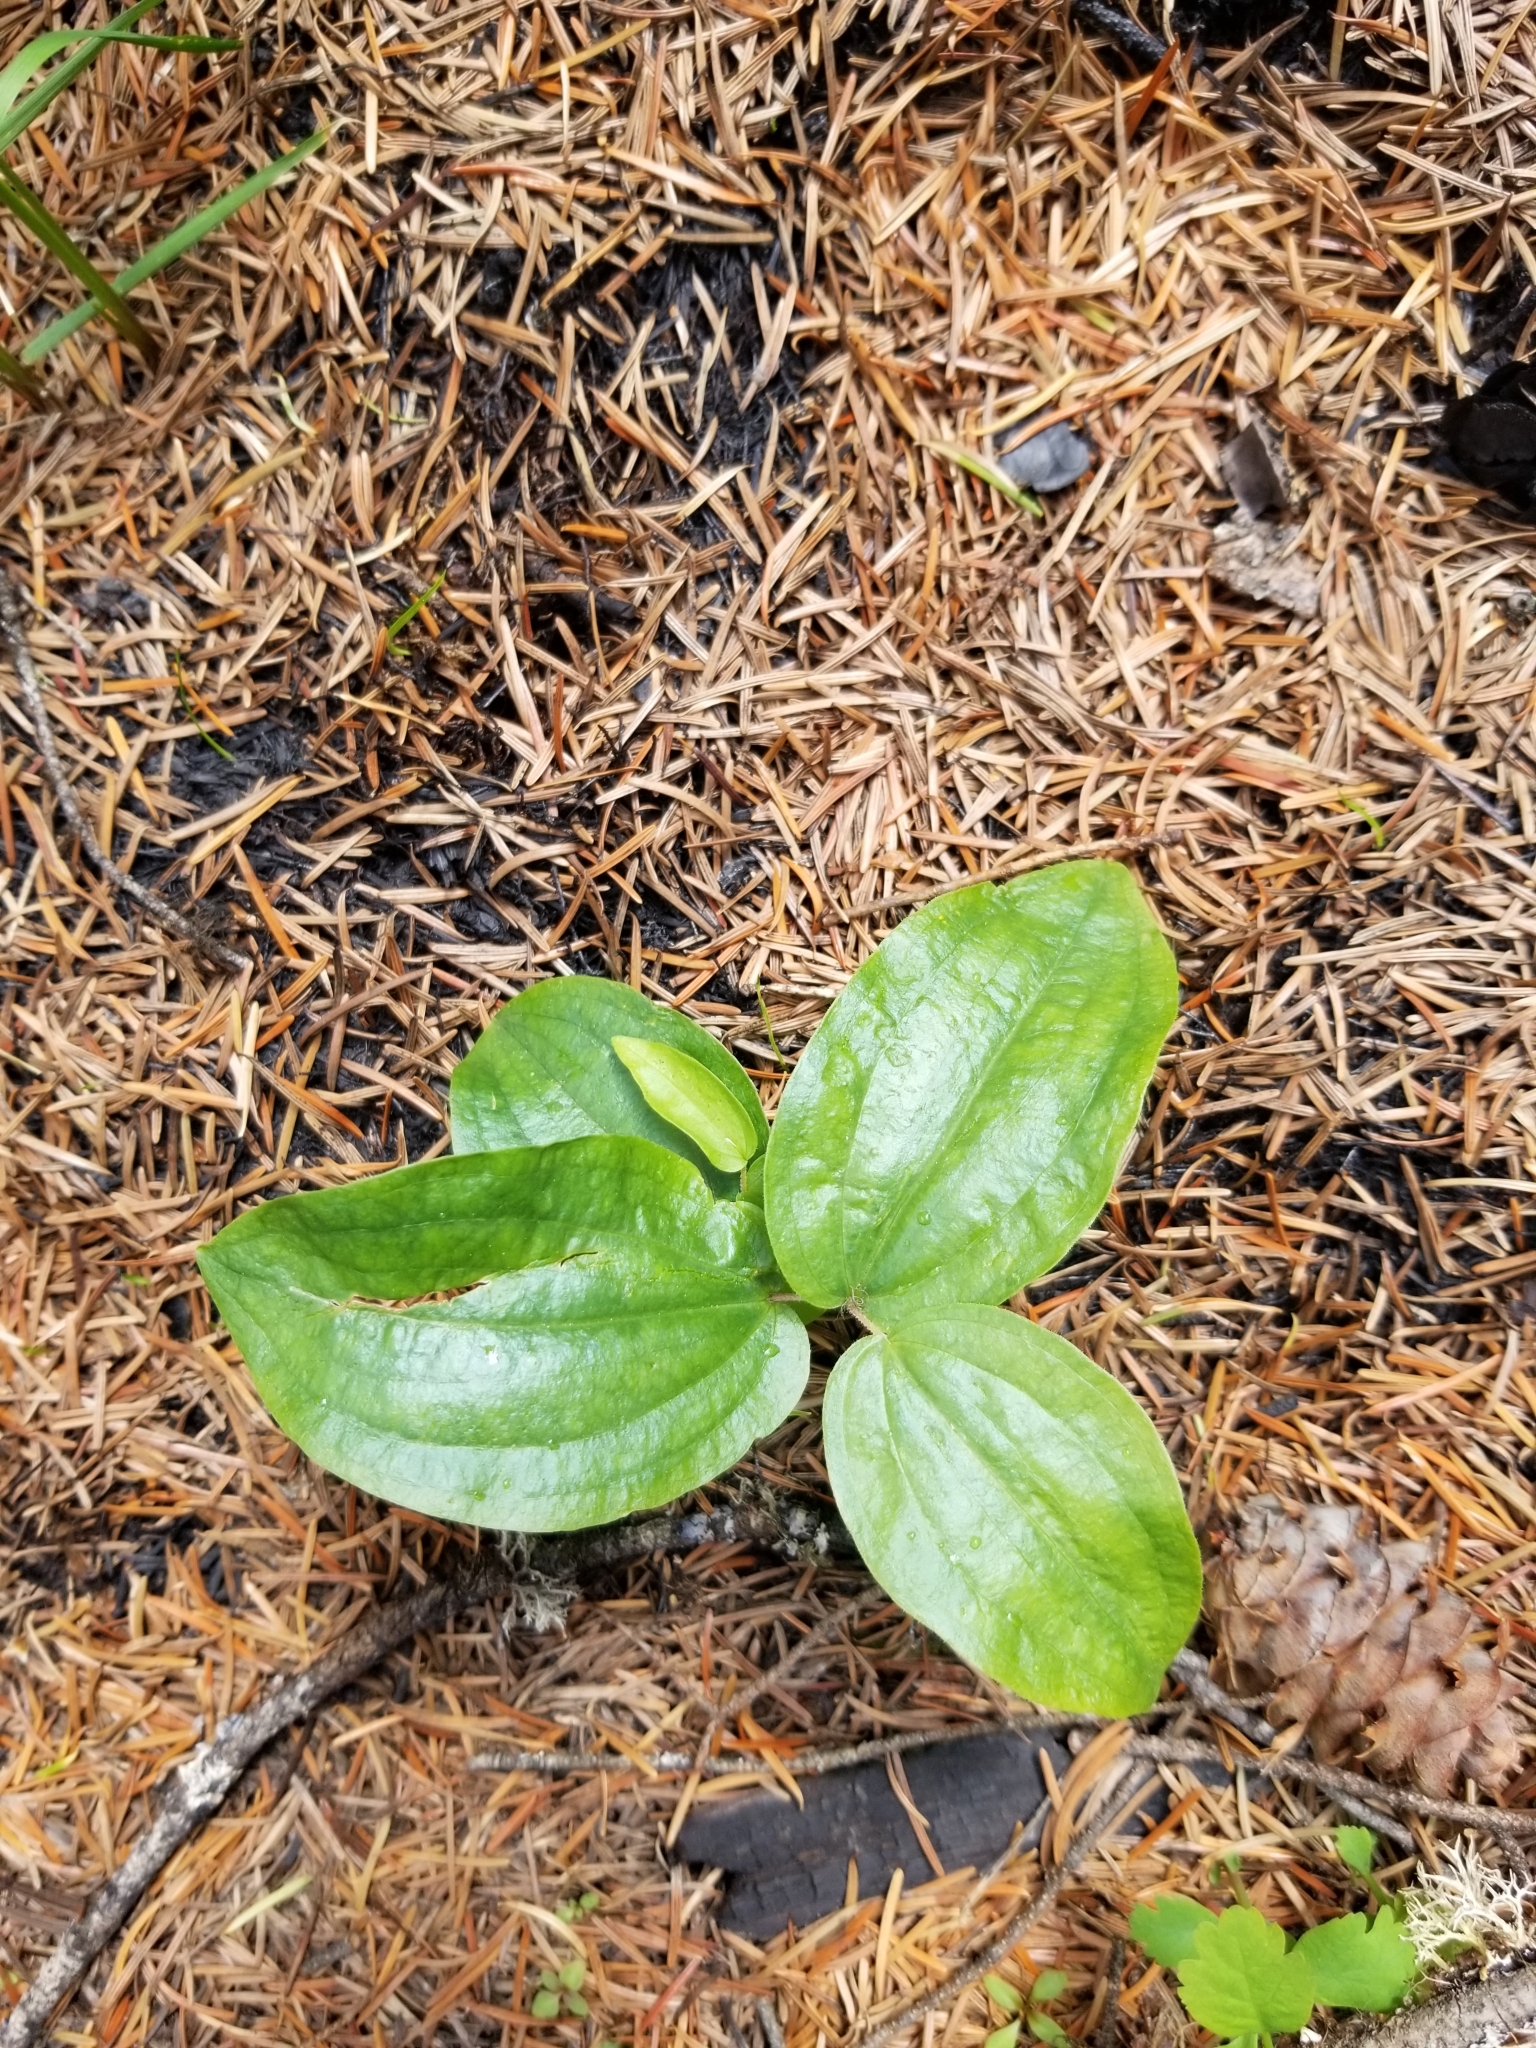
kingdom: Plantae
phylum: Tracheophyta
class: Liliopsida
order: Liliales
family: Liliaceae
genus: Prosartes
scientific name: Prosartes trachycarpa
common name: Rough-fruit fairy-bells
